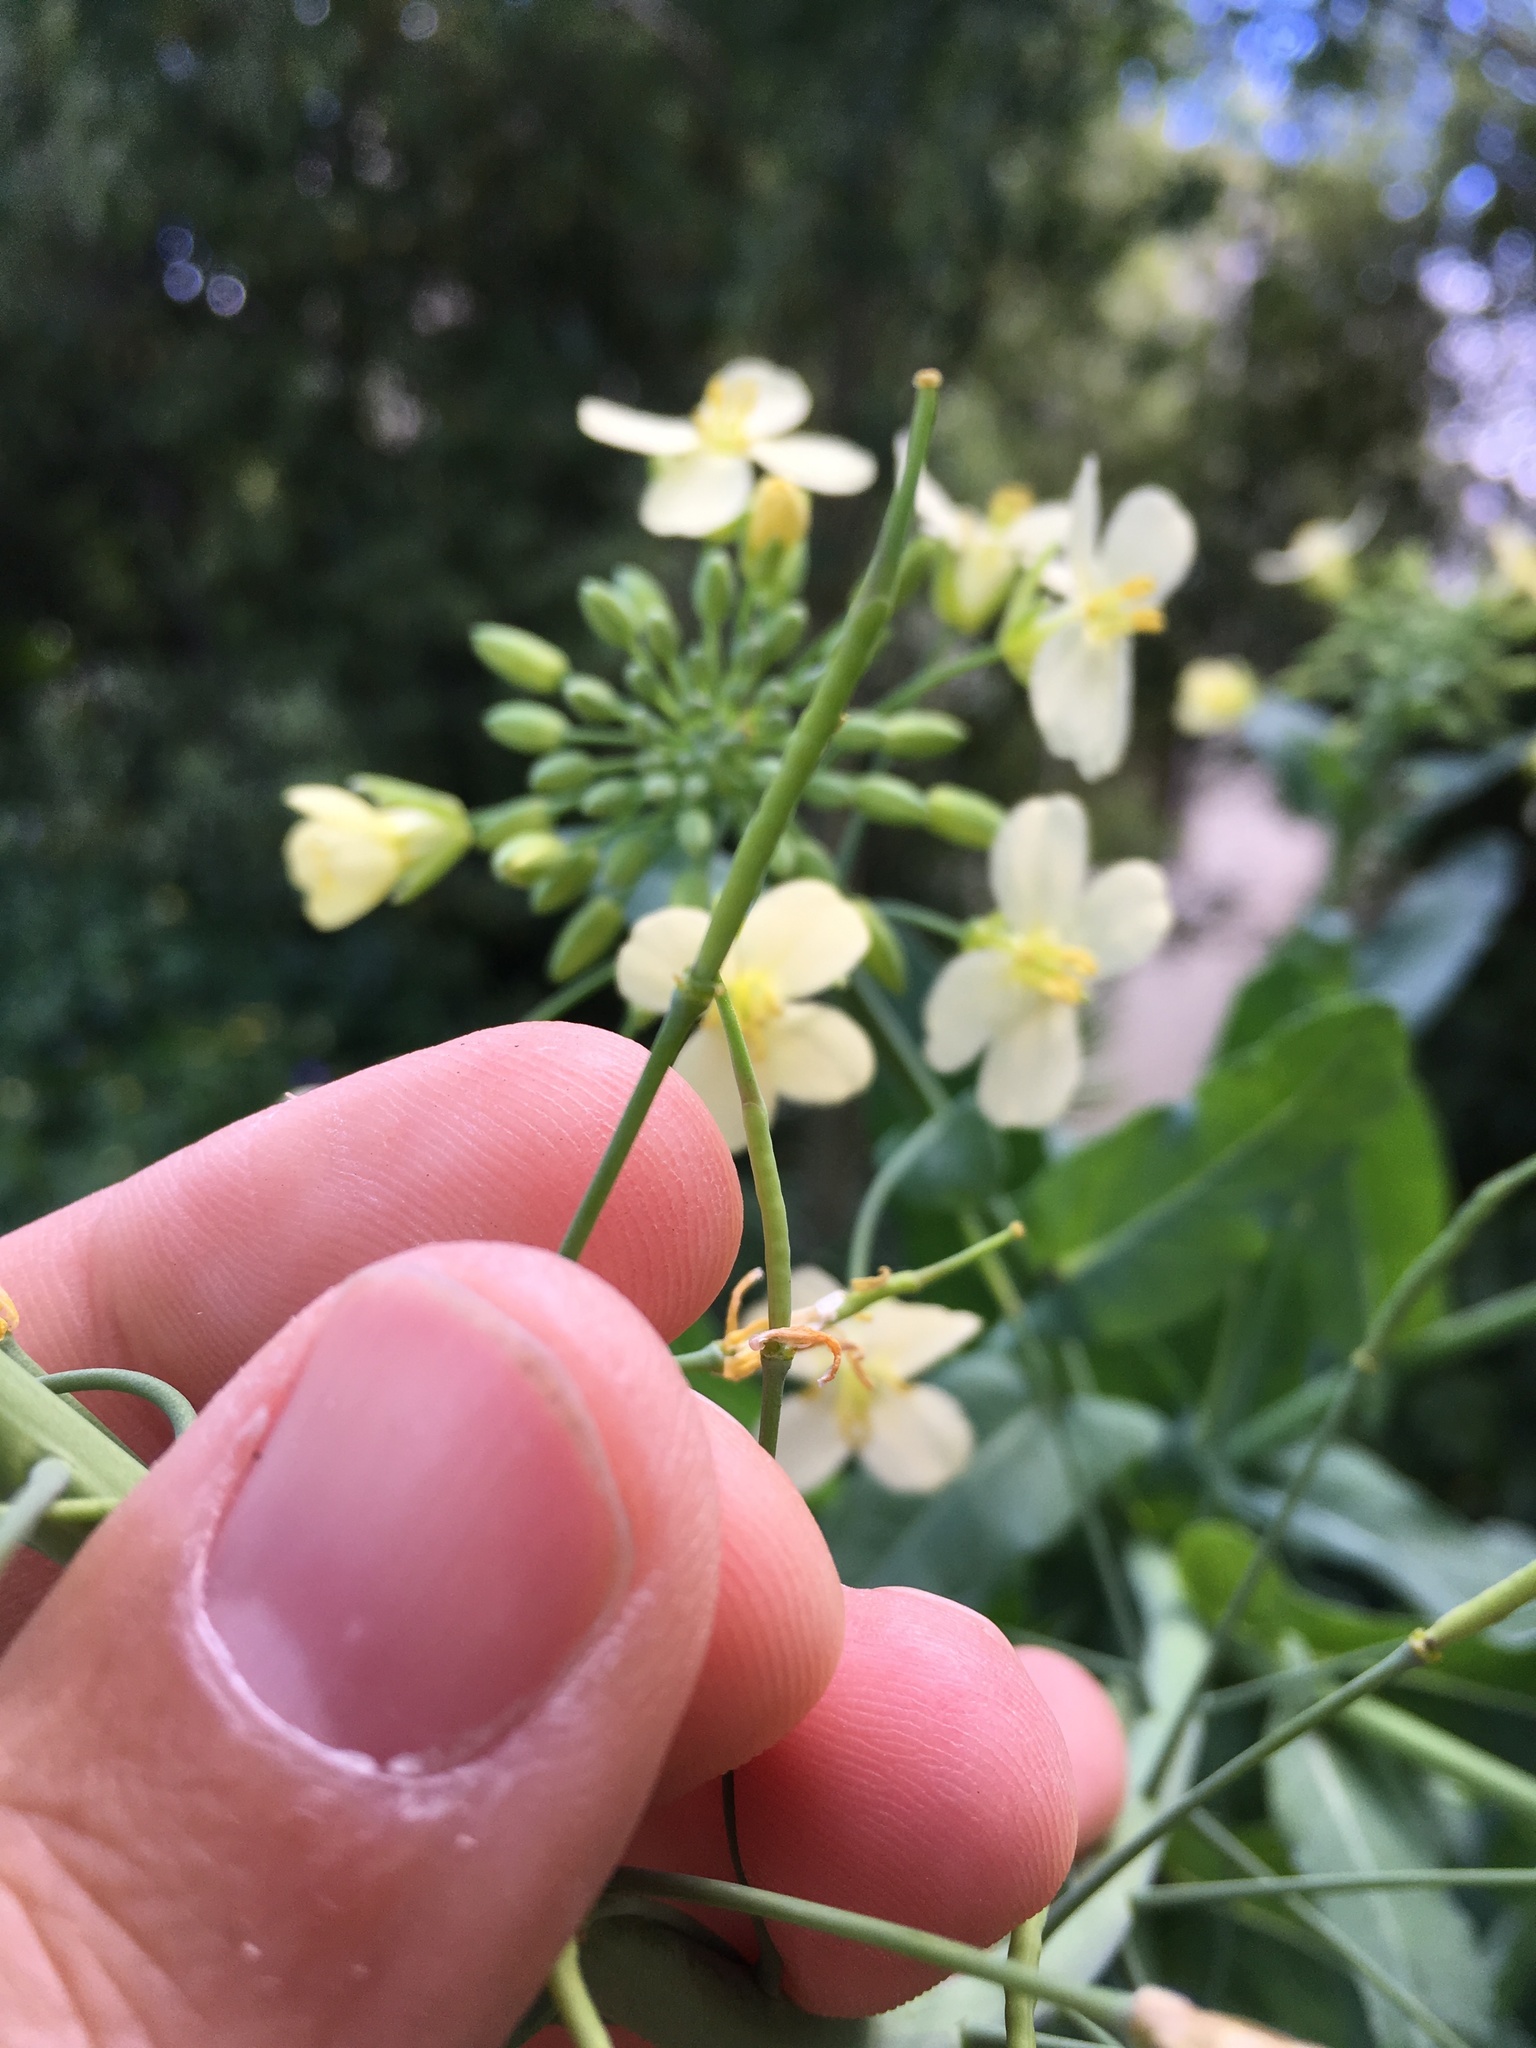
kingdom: Plantae
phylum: Tracheophyta
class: Magnoliopsida
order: Brassicales
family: Brassicaceae
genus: Brassica
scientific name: Brassica oleracea
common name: Cabbage
